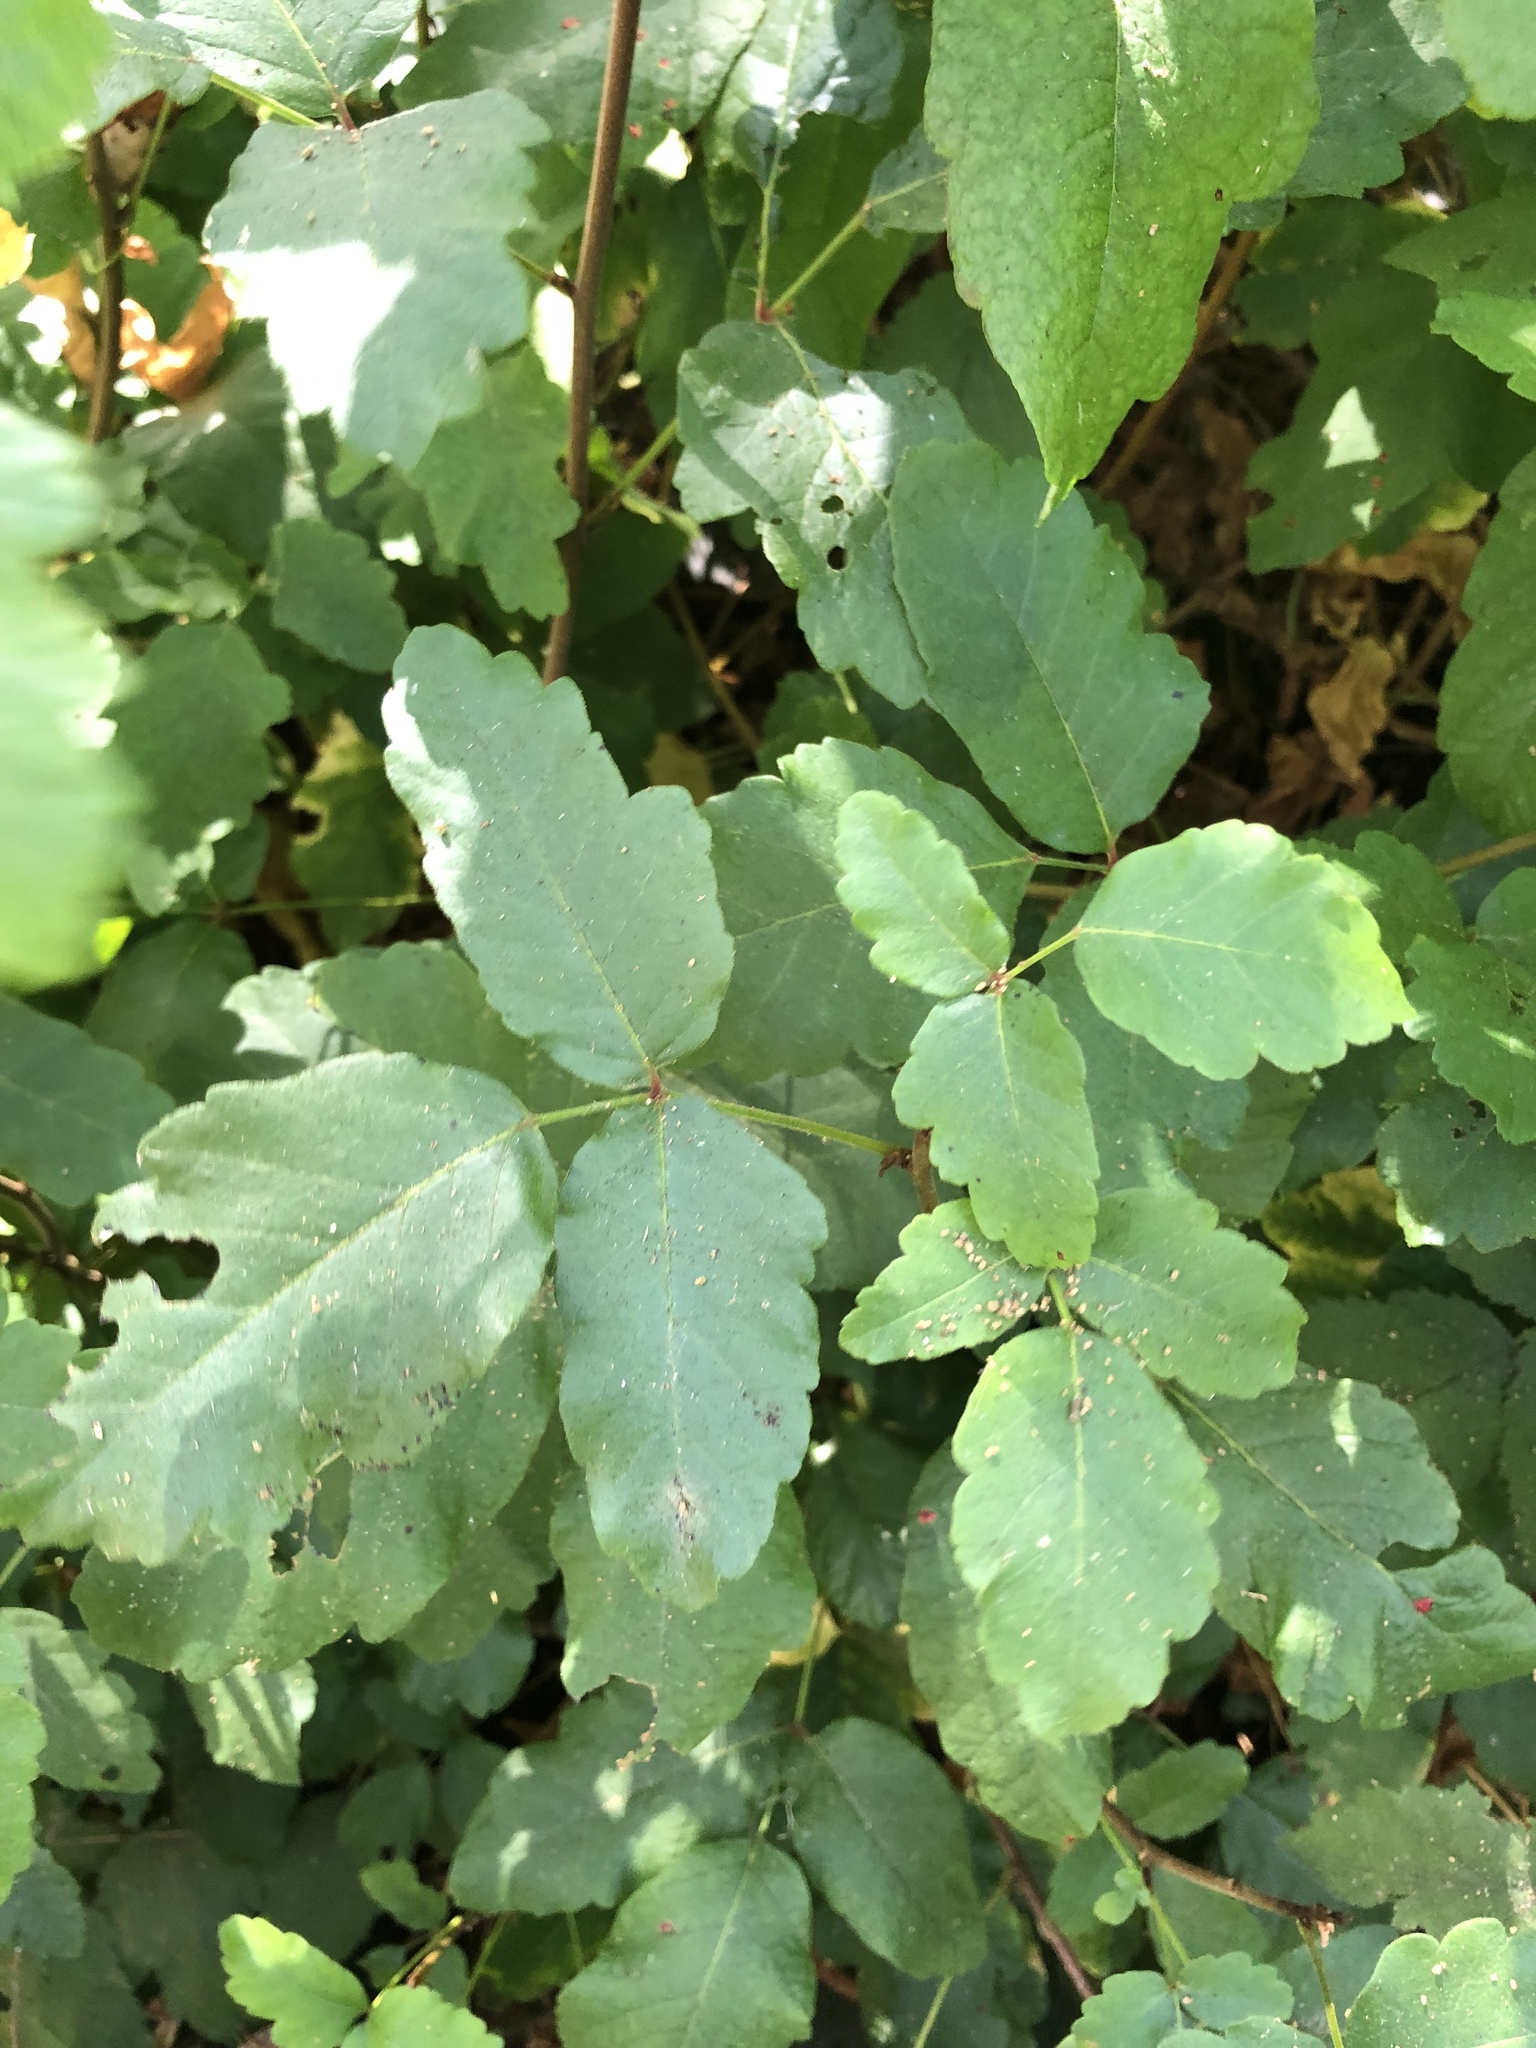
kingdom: Plantae
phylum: Tracheophyta
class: Magnoliopsida
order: Sapindales
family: Anacardiaceae
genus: Toxicodendron
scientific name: Toxicodendron diversilobum
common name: Pacific poison-oak
